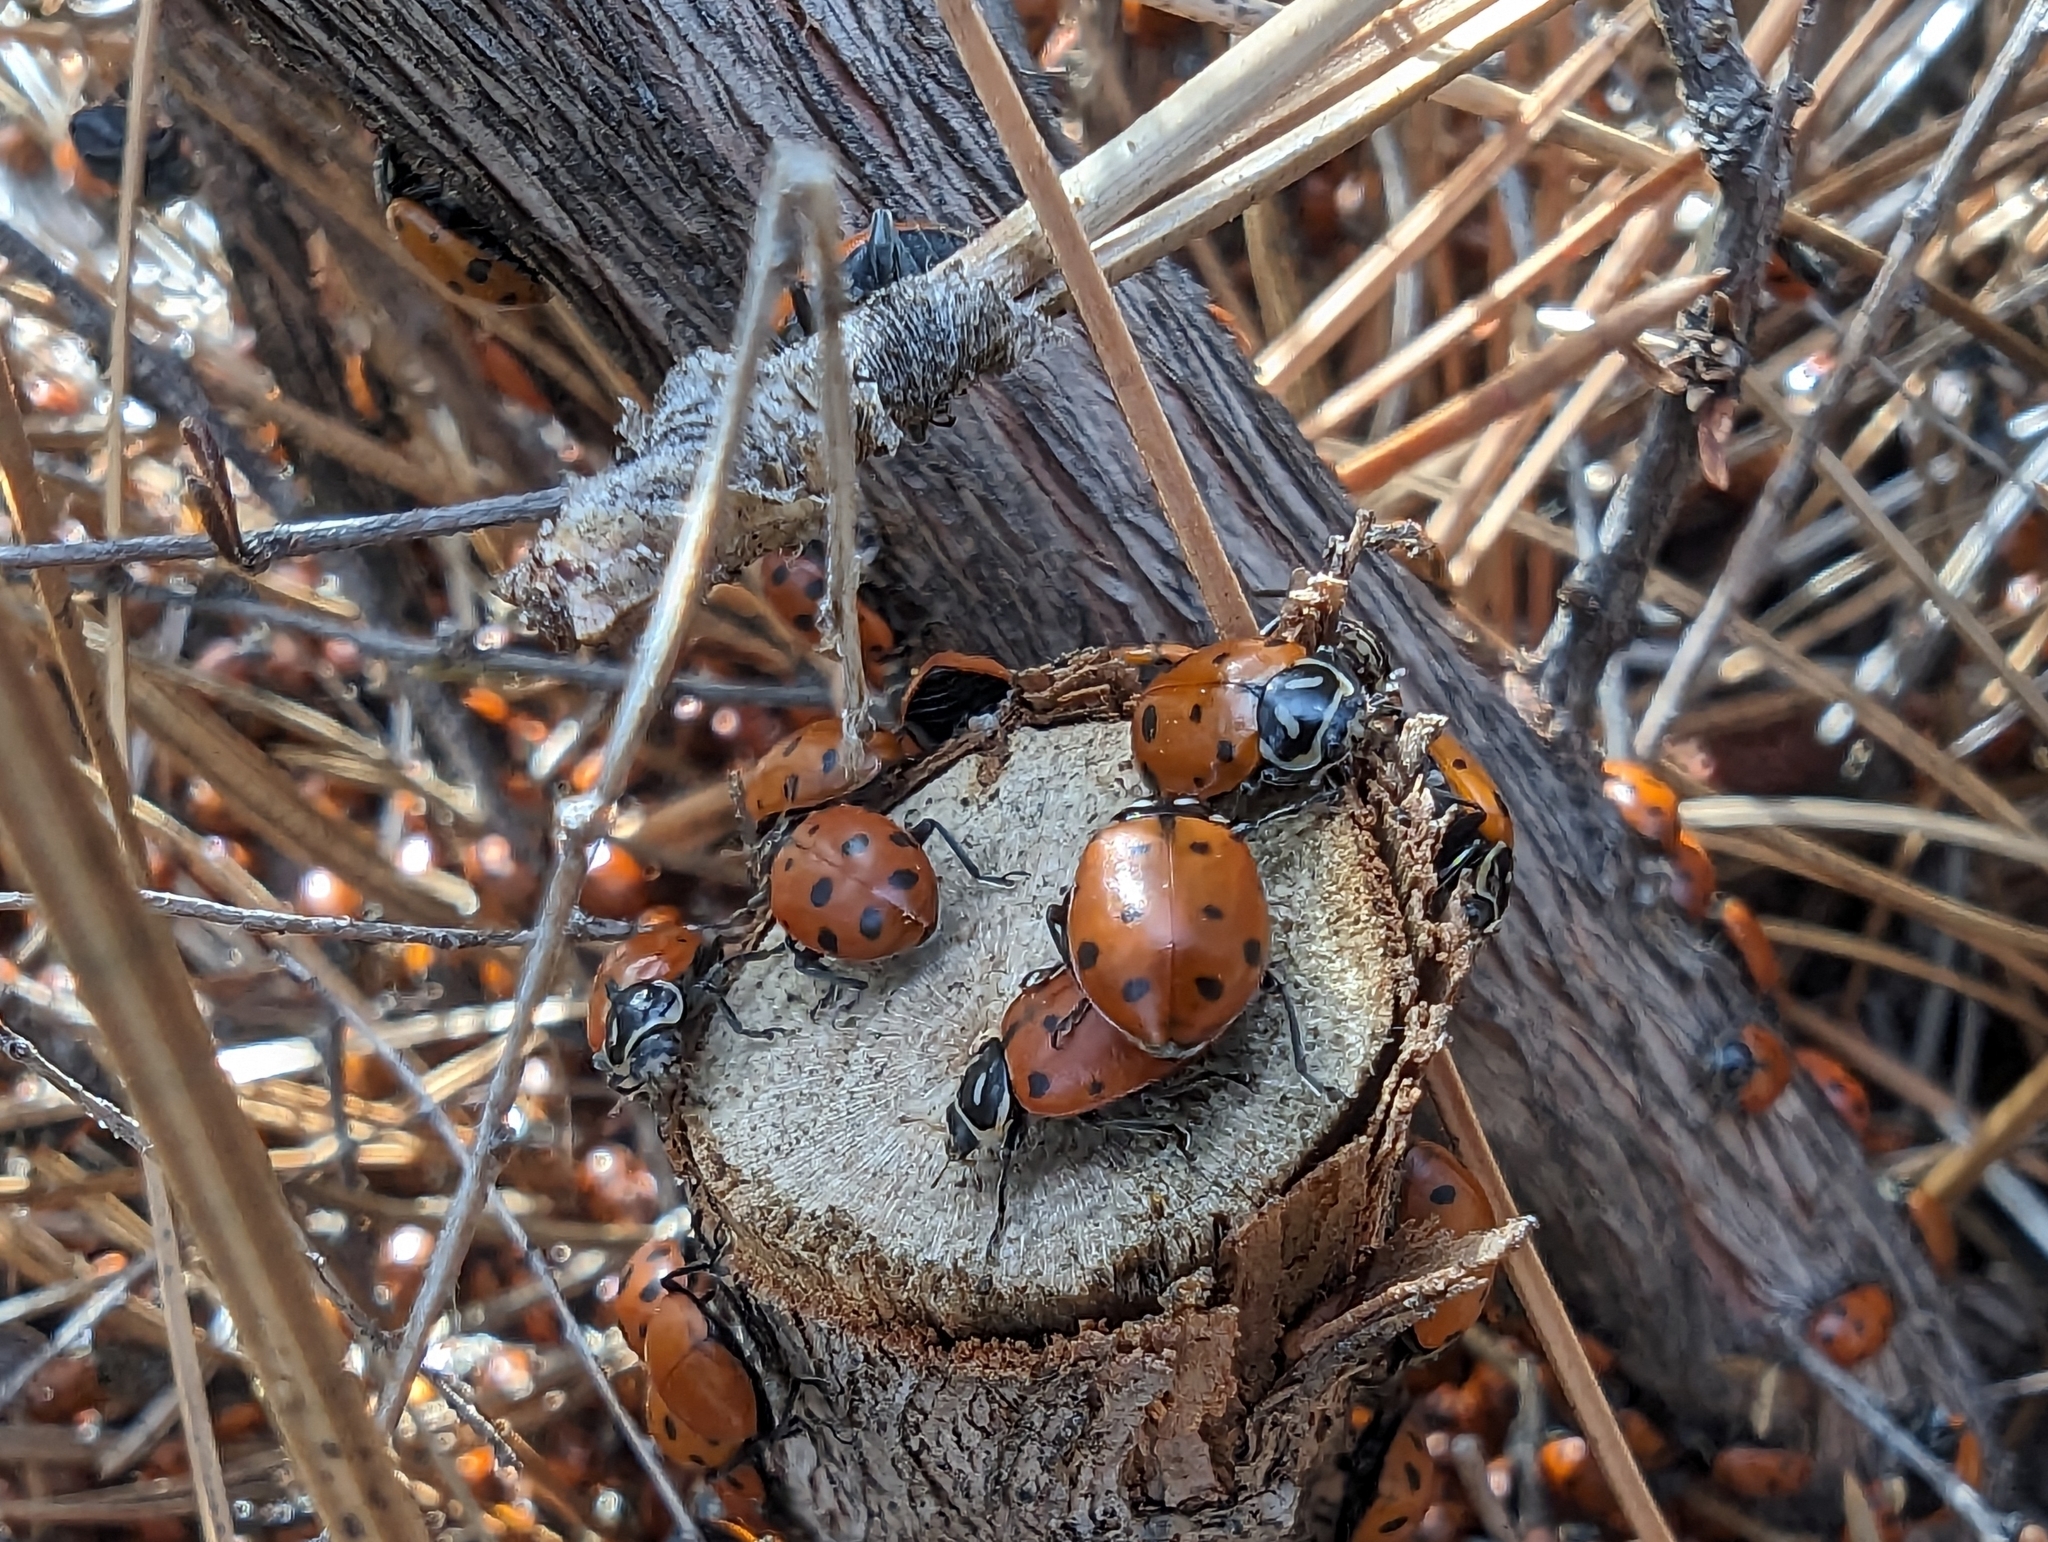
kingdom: Animalia
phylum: Arthropoda
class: Insecta
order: Coleoptera
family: Coccinellidae
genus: Hippodamia
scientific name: Hippodamia convergens
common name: Convergent lady beetle
